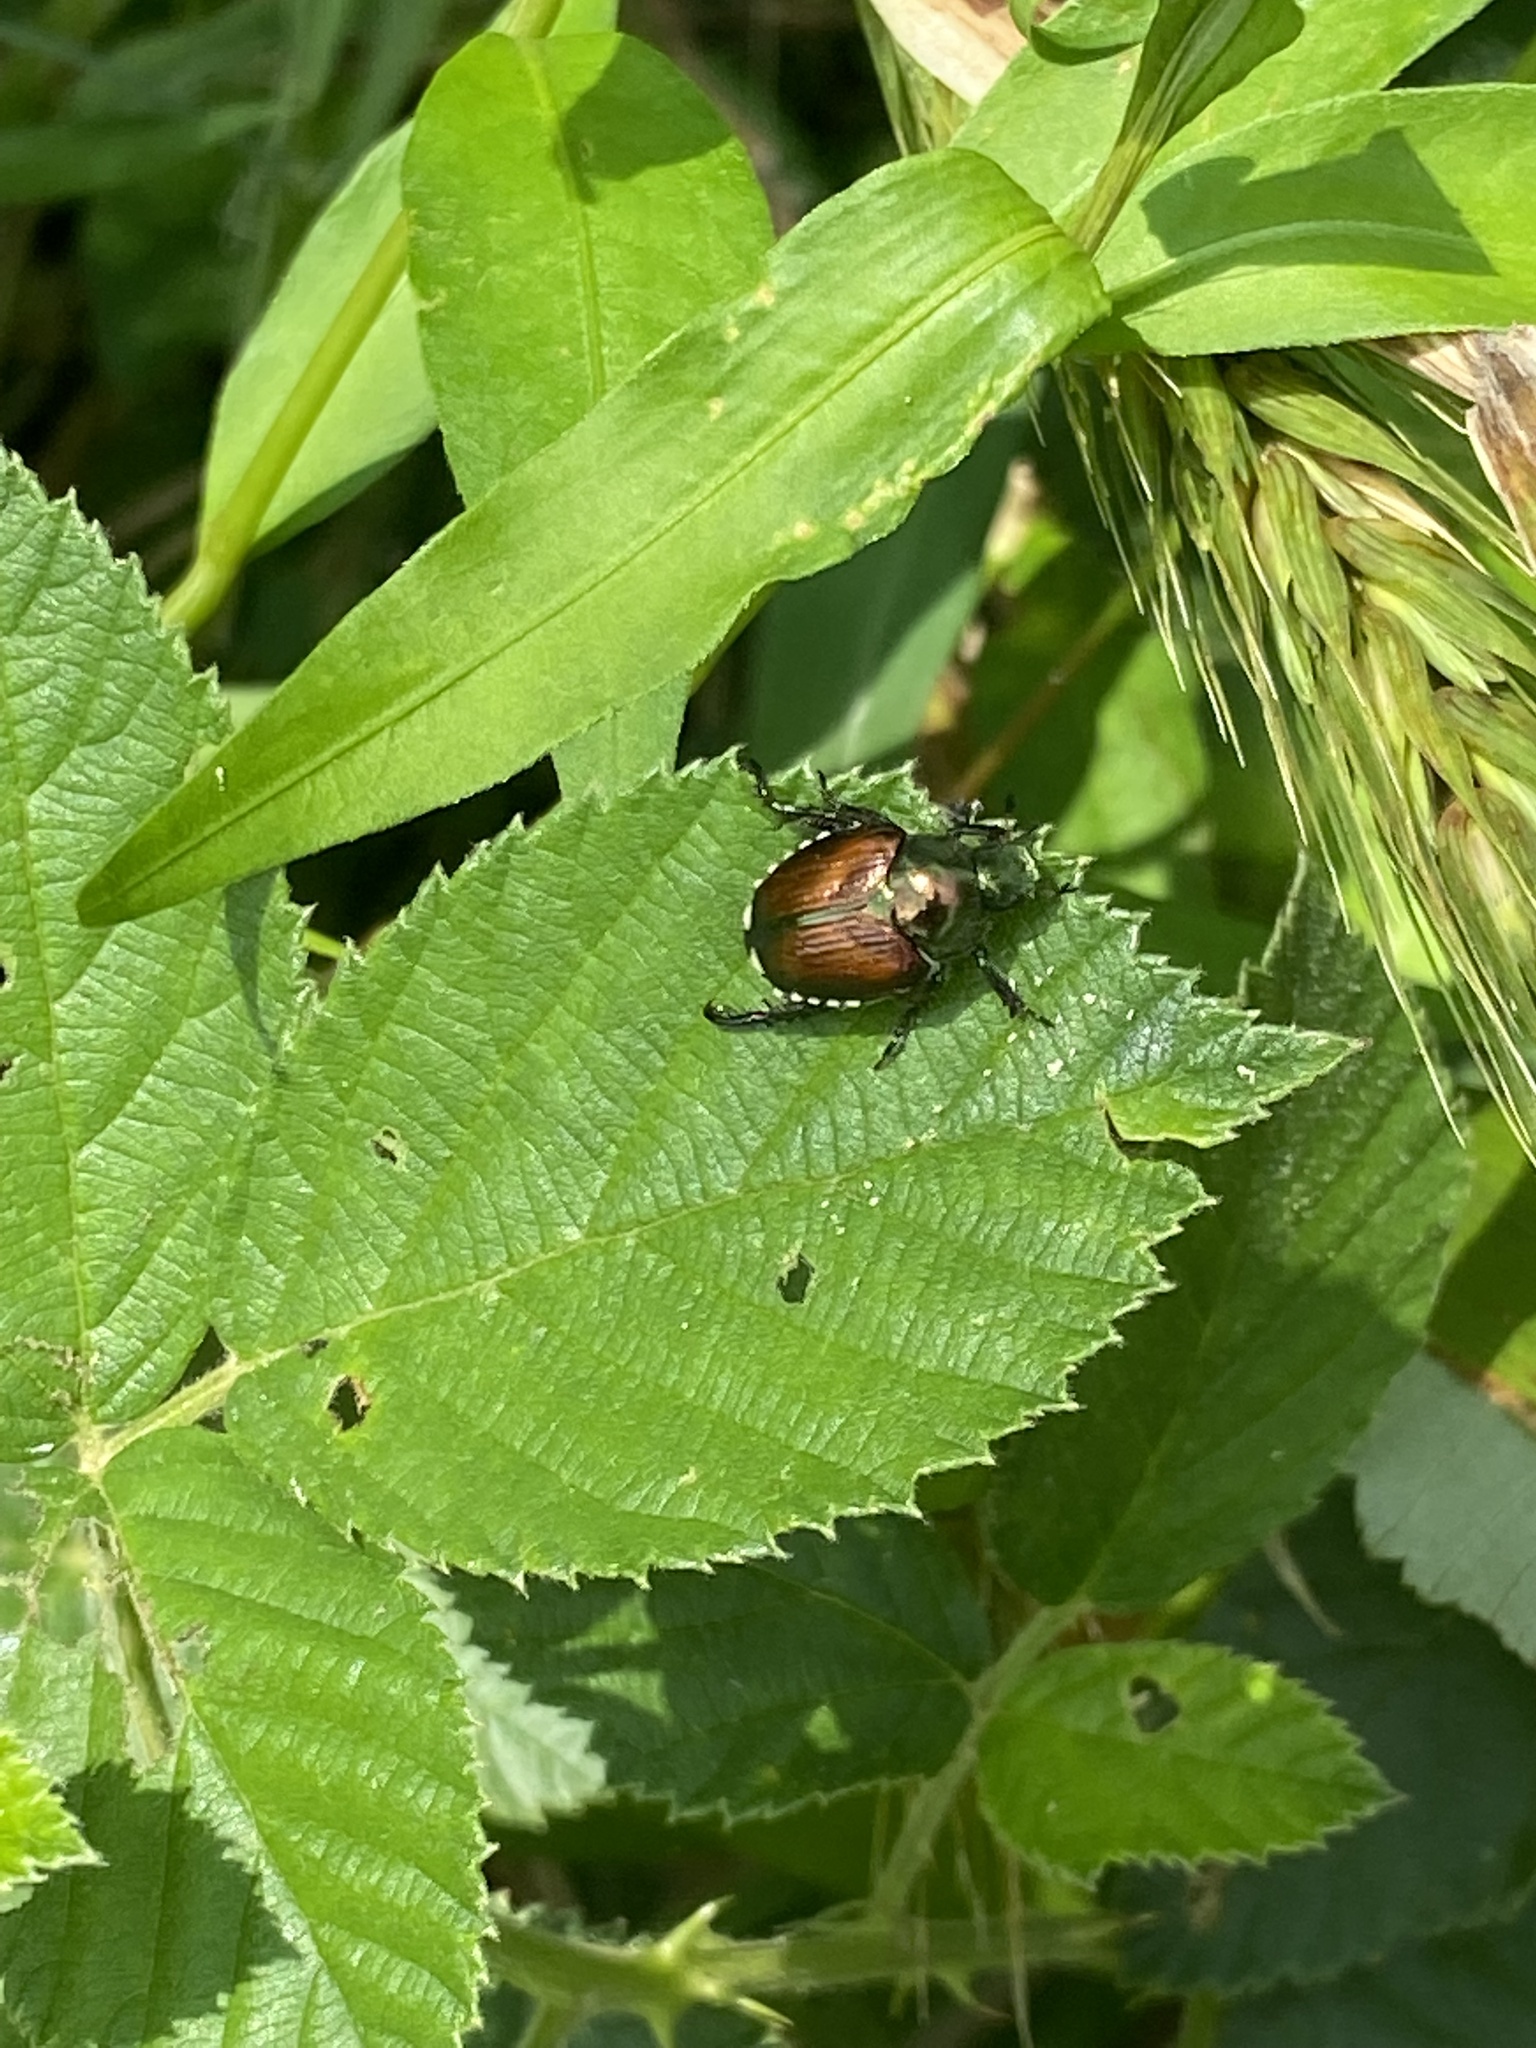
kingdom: Animalia
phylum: Arthropoda
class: Insecta
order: Coleoptera
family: Scarabaeidae
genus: Popillia
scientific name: Popillia japonica
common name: Japanese beetle
